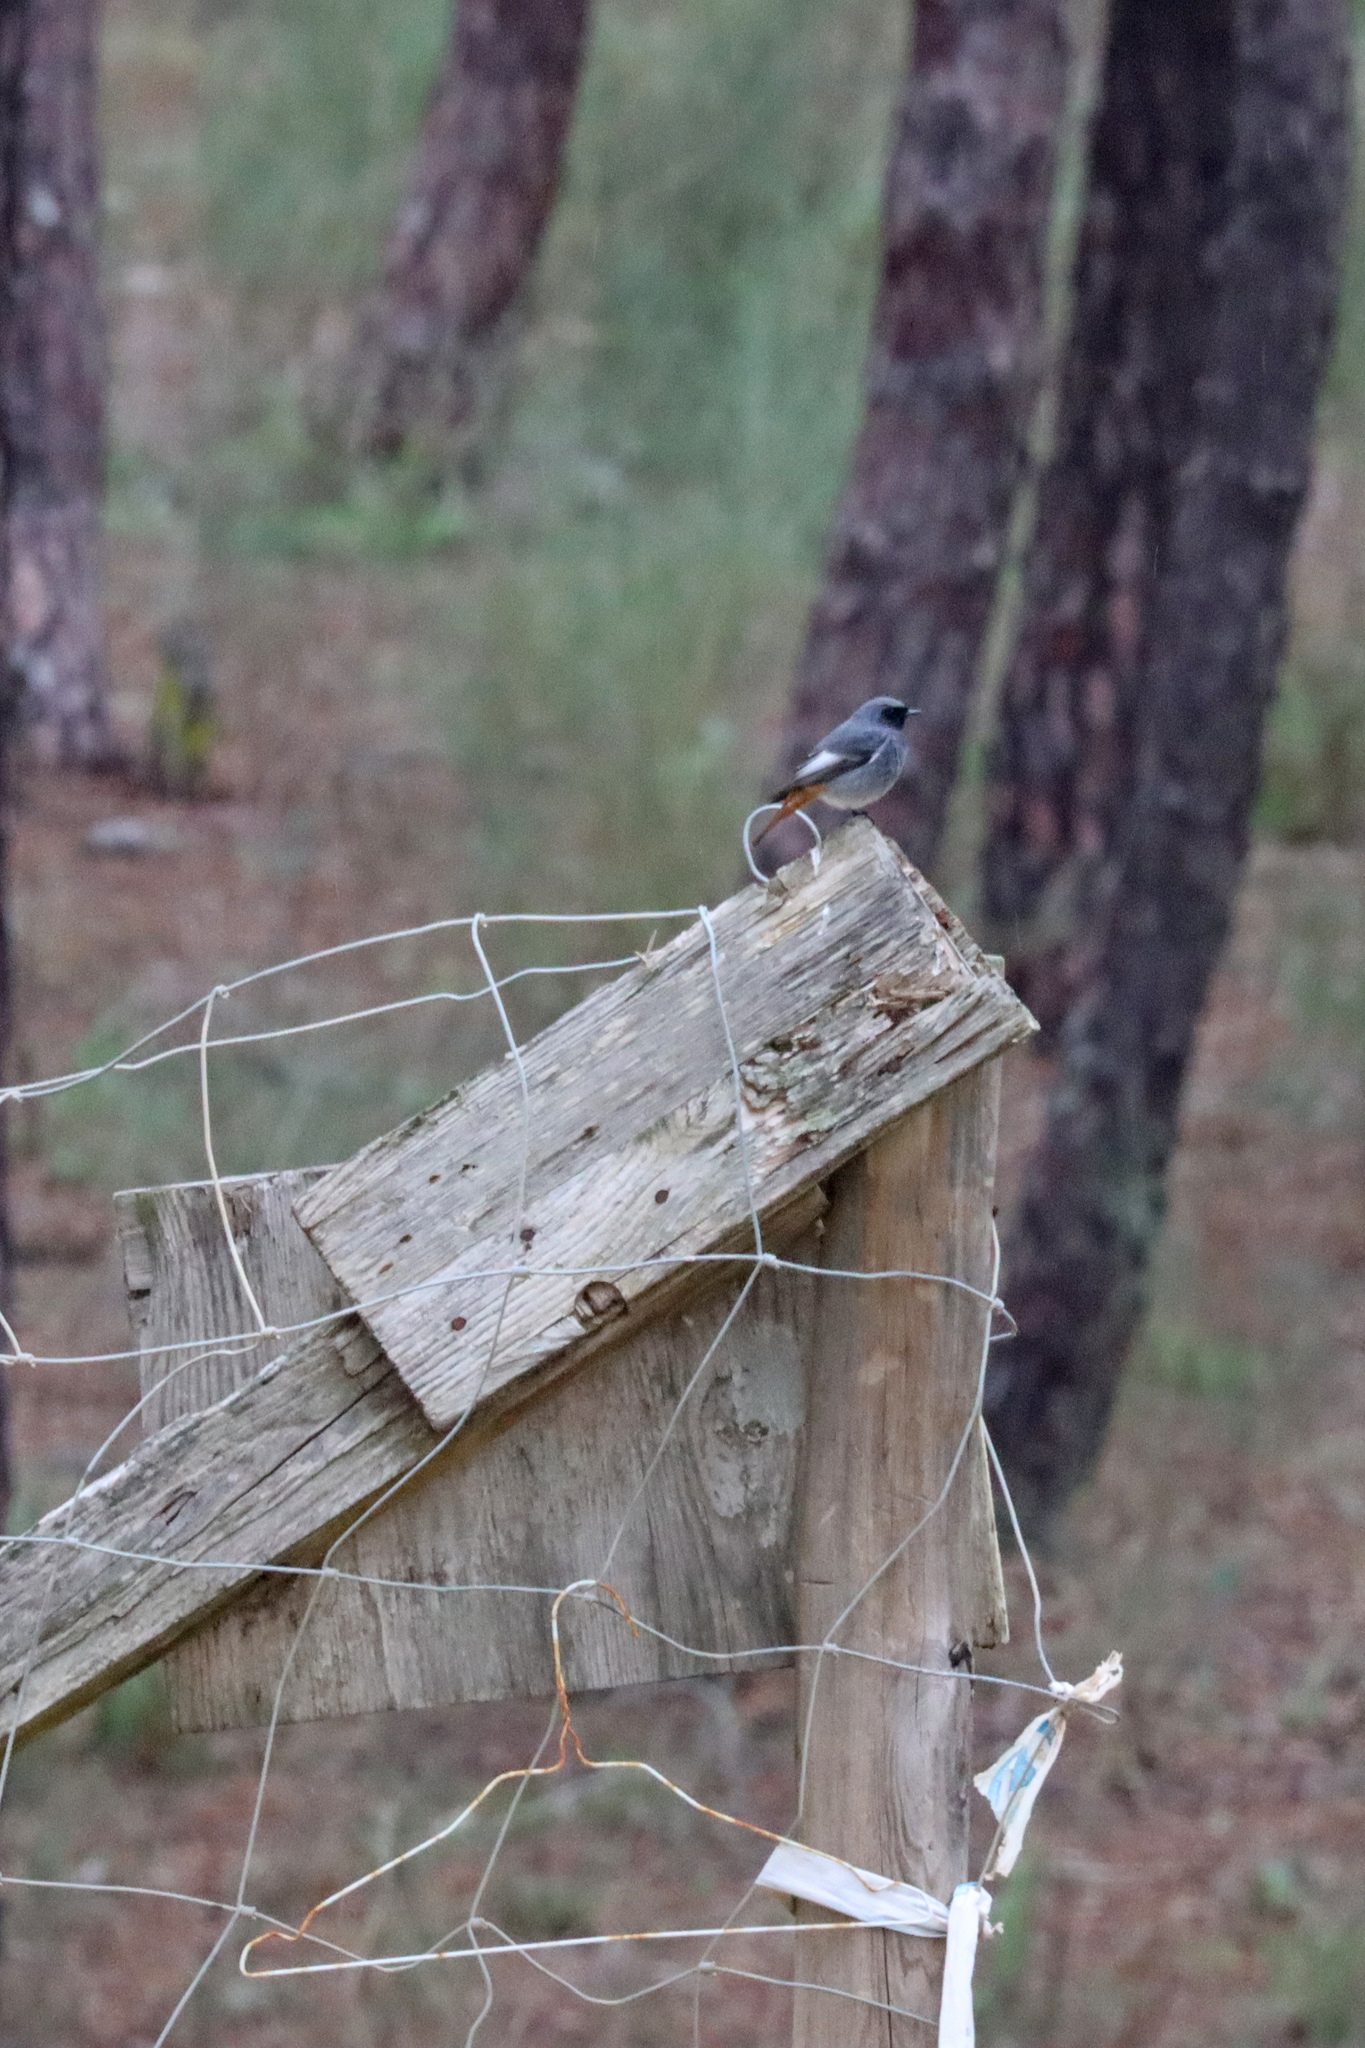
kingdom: Animalia
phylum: Chordata
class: Aves
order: Passeriformes
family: Muscicapidae
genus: Phoenicurus
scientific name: Phoenicurus ochruros
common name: Black redstart
